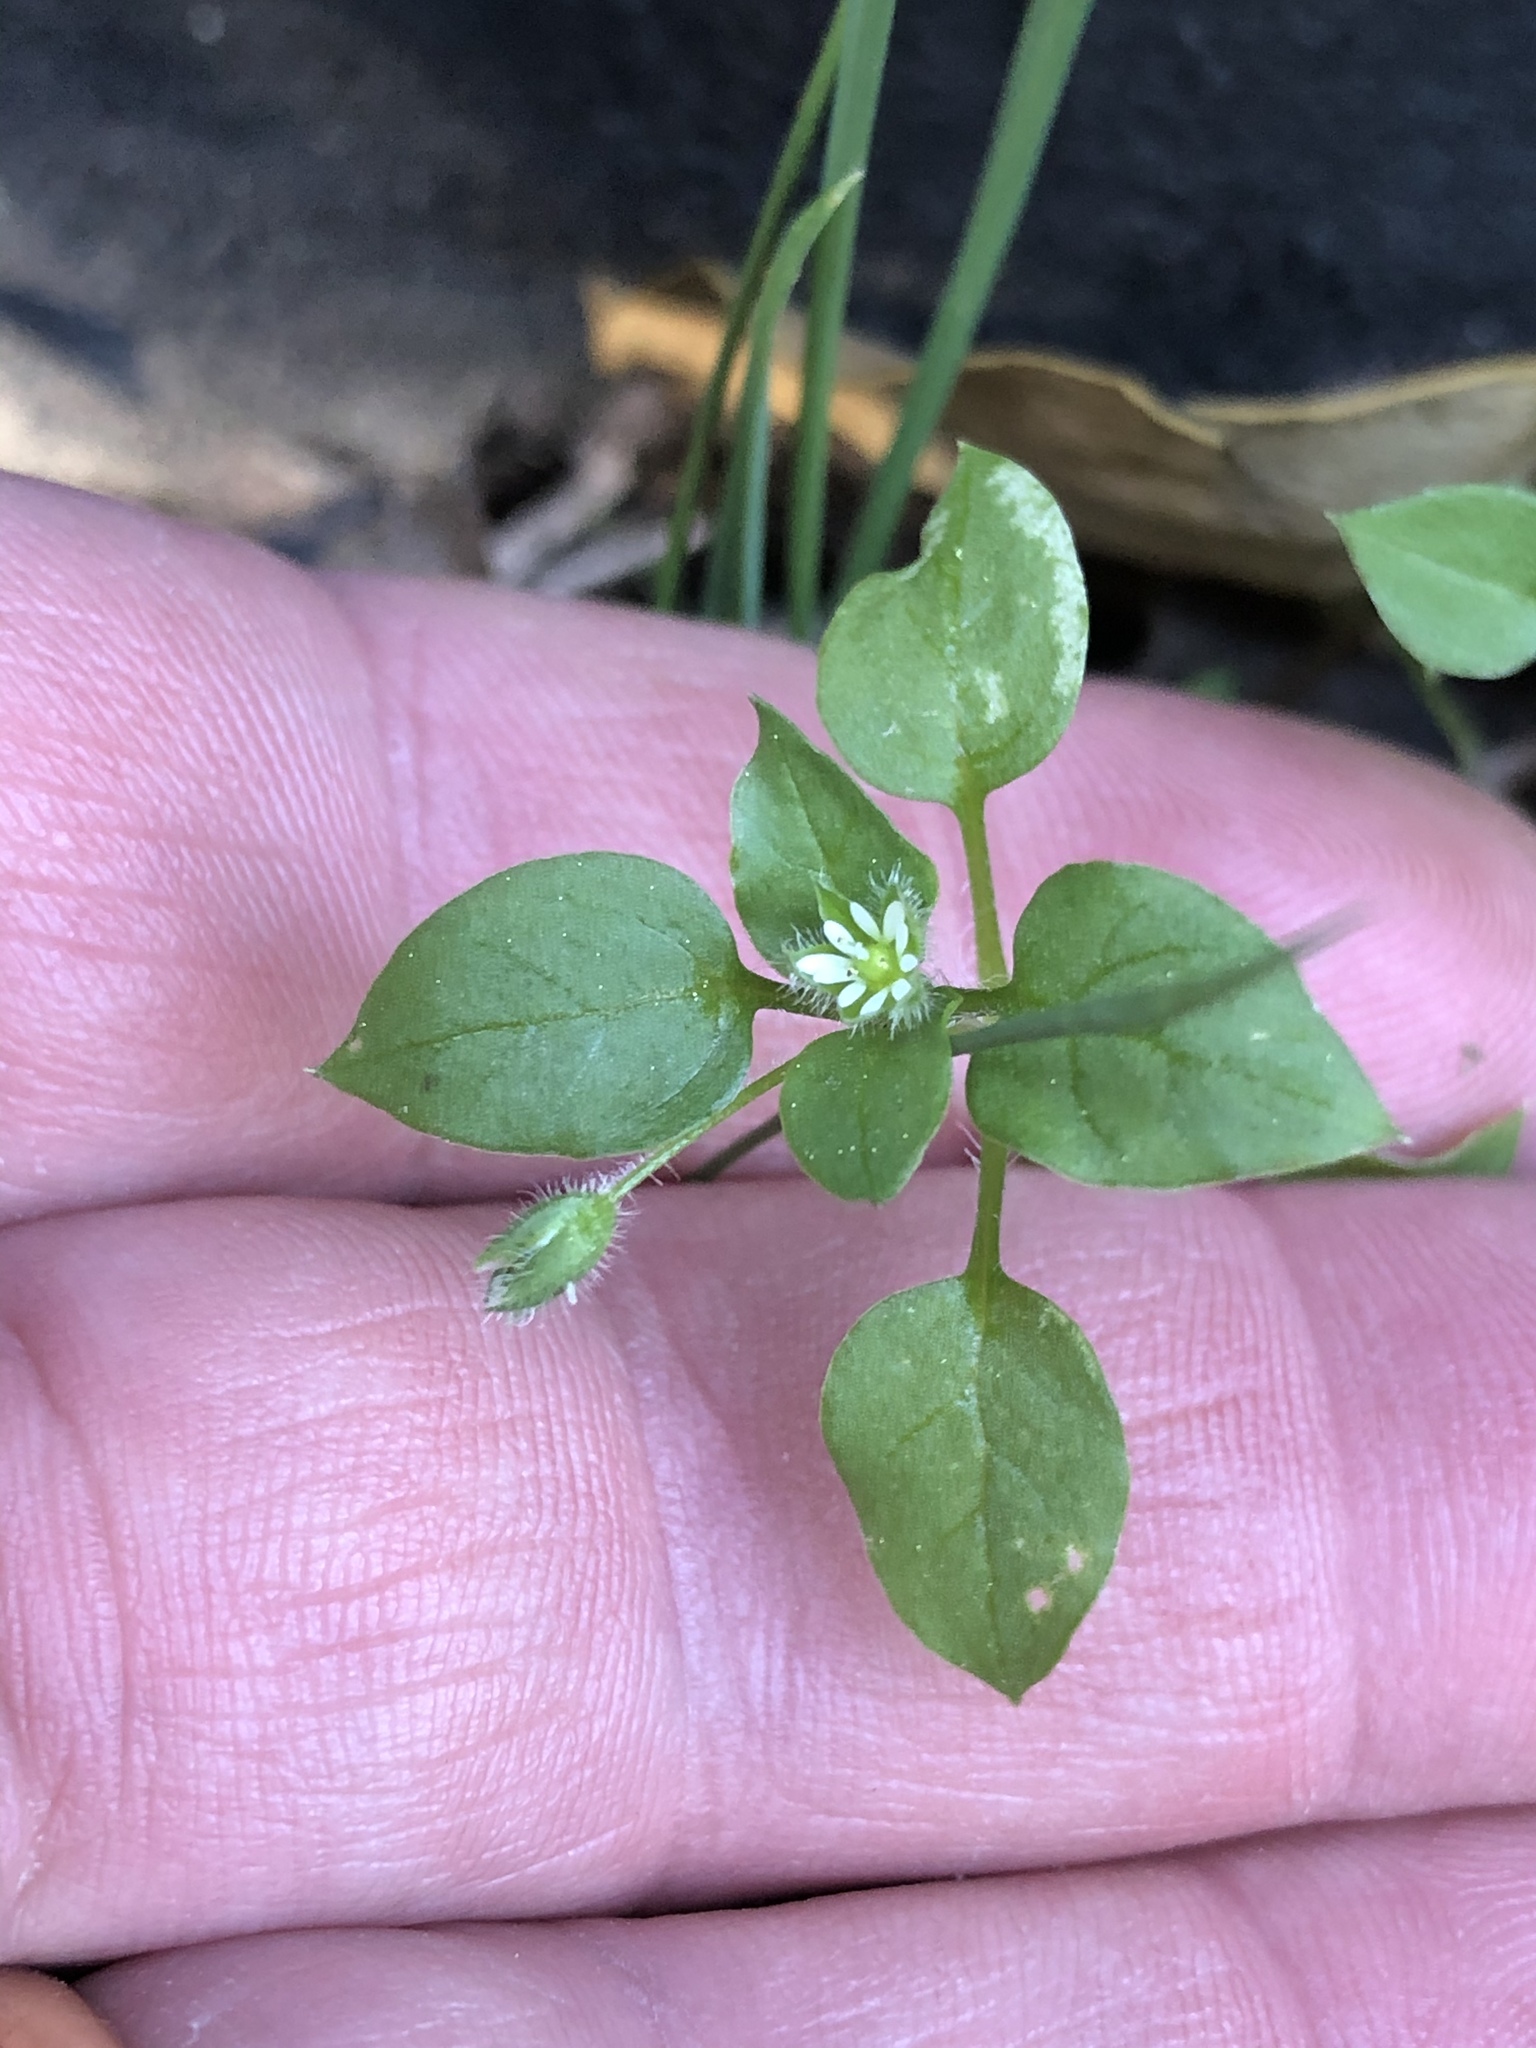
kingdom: Plantae
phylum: Tracheophyta
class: Magnoliopsida
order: Caryophyllales
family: Caryophyllaceae
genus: Stellaria
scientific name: Stellaria media
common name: Common chickweed
